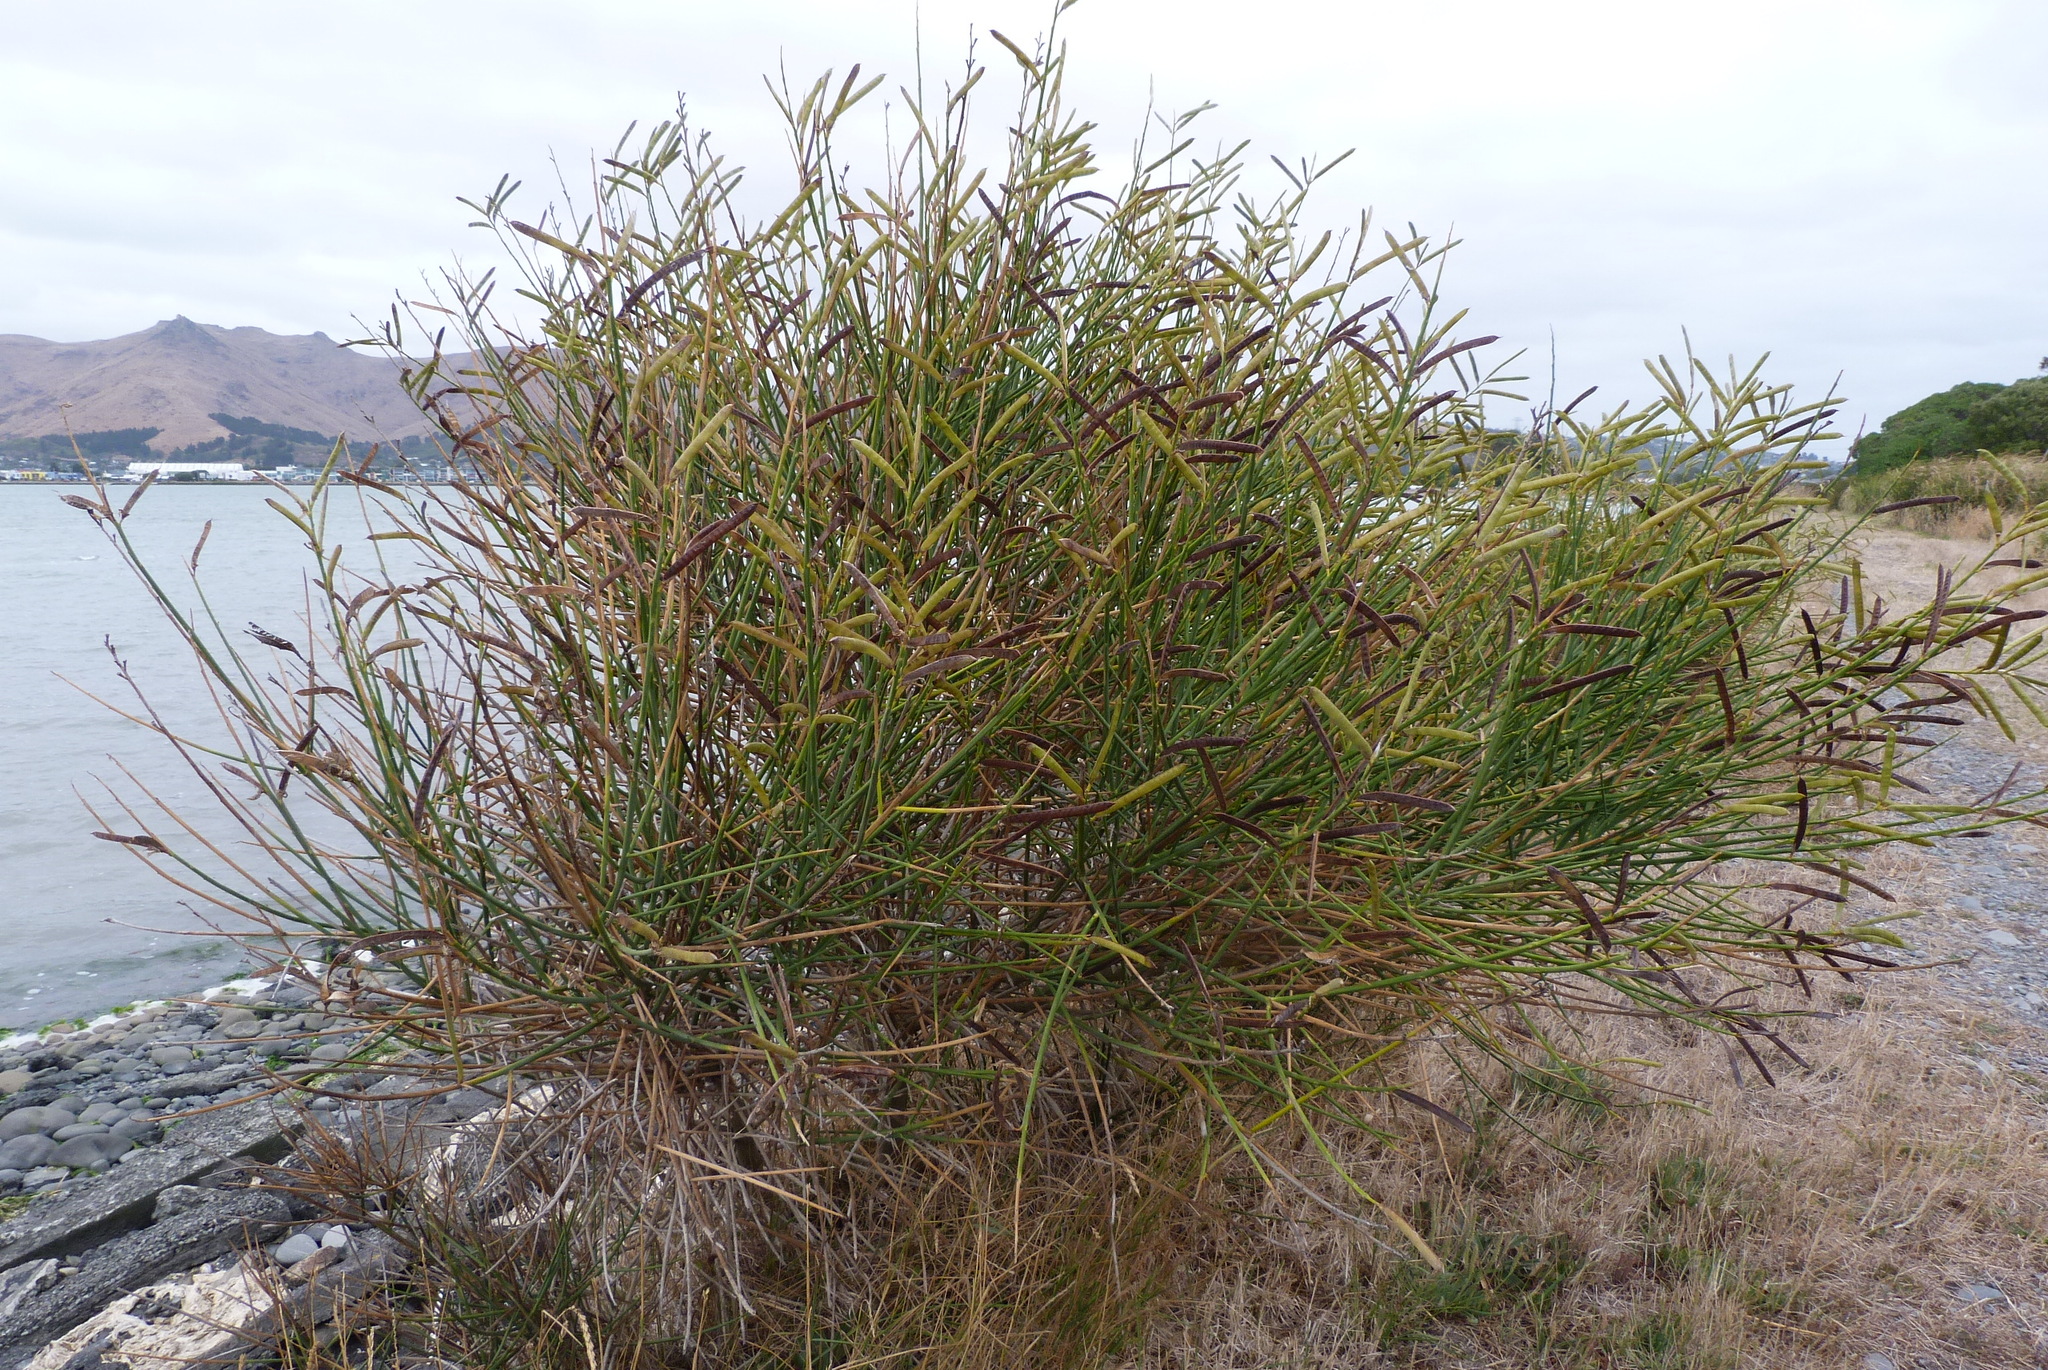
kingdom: Plantae
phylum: Tracheophyta
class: Magnoliopsida
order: Fabales
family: Fabaceae
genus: Spartium
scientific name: Spartium junceum
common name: Spanish broom
